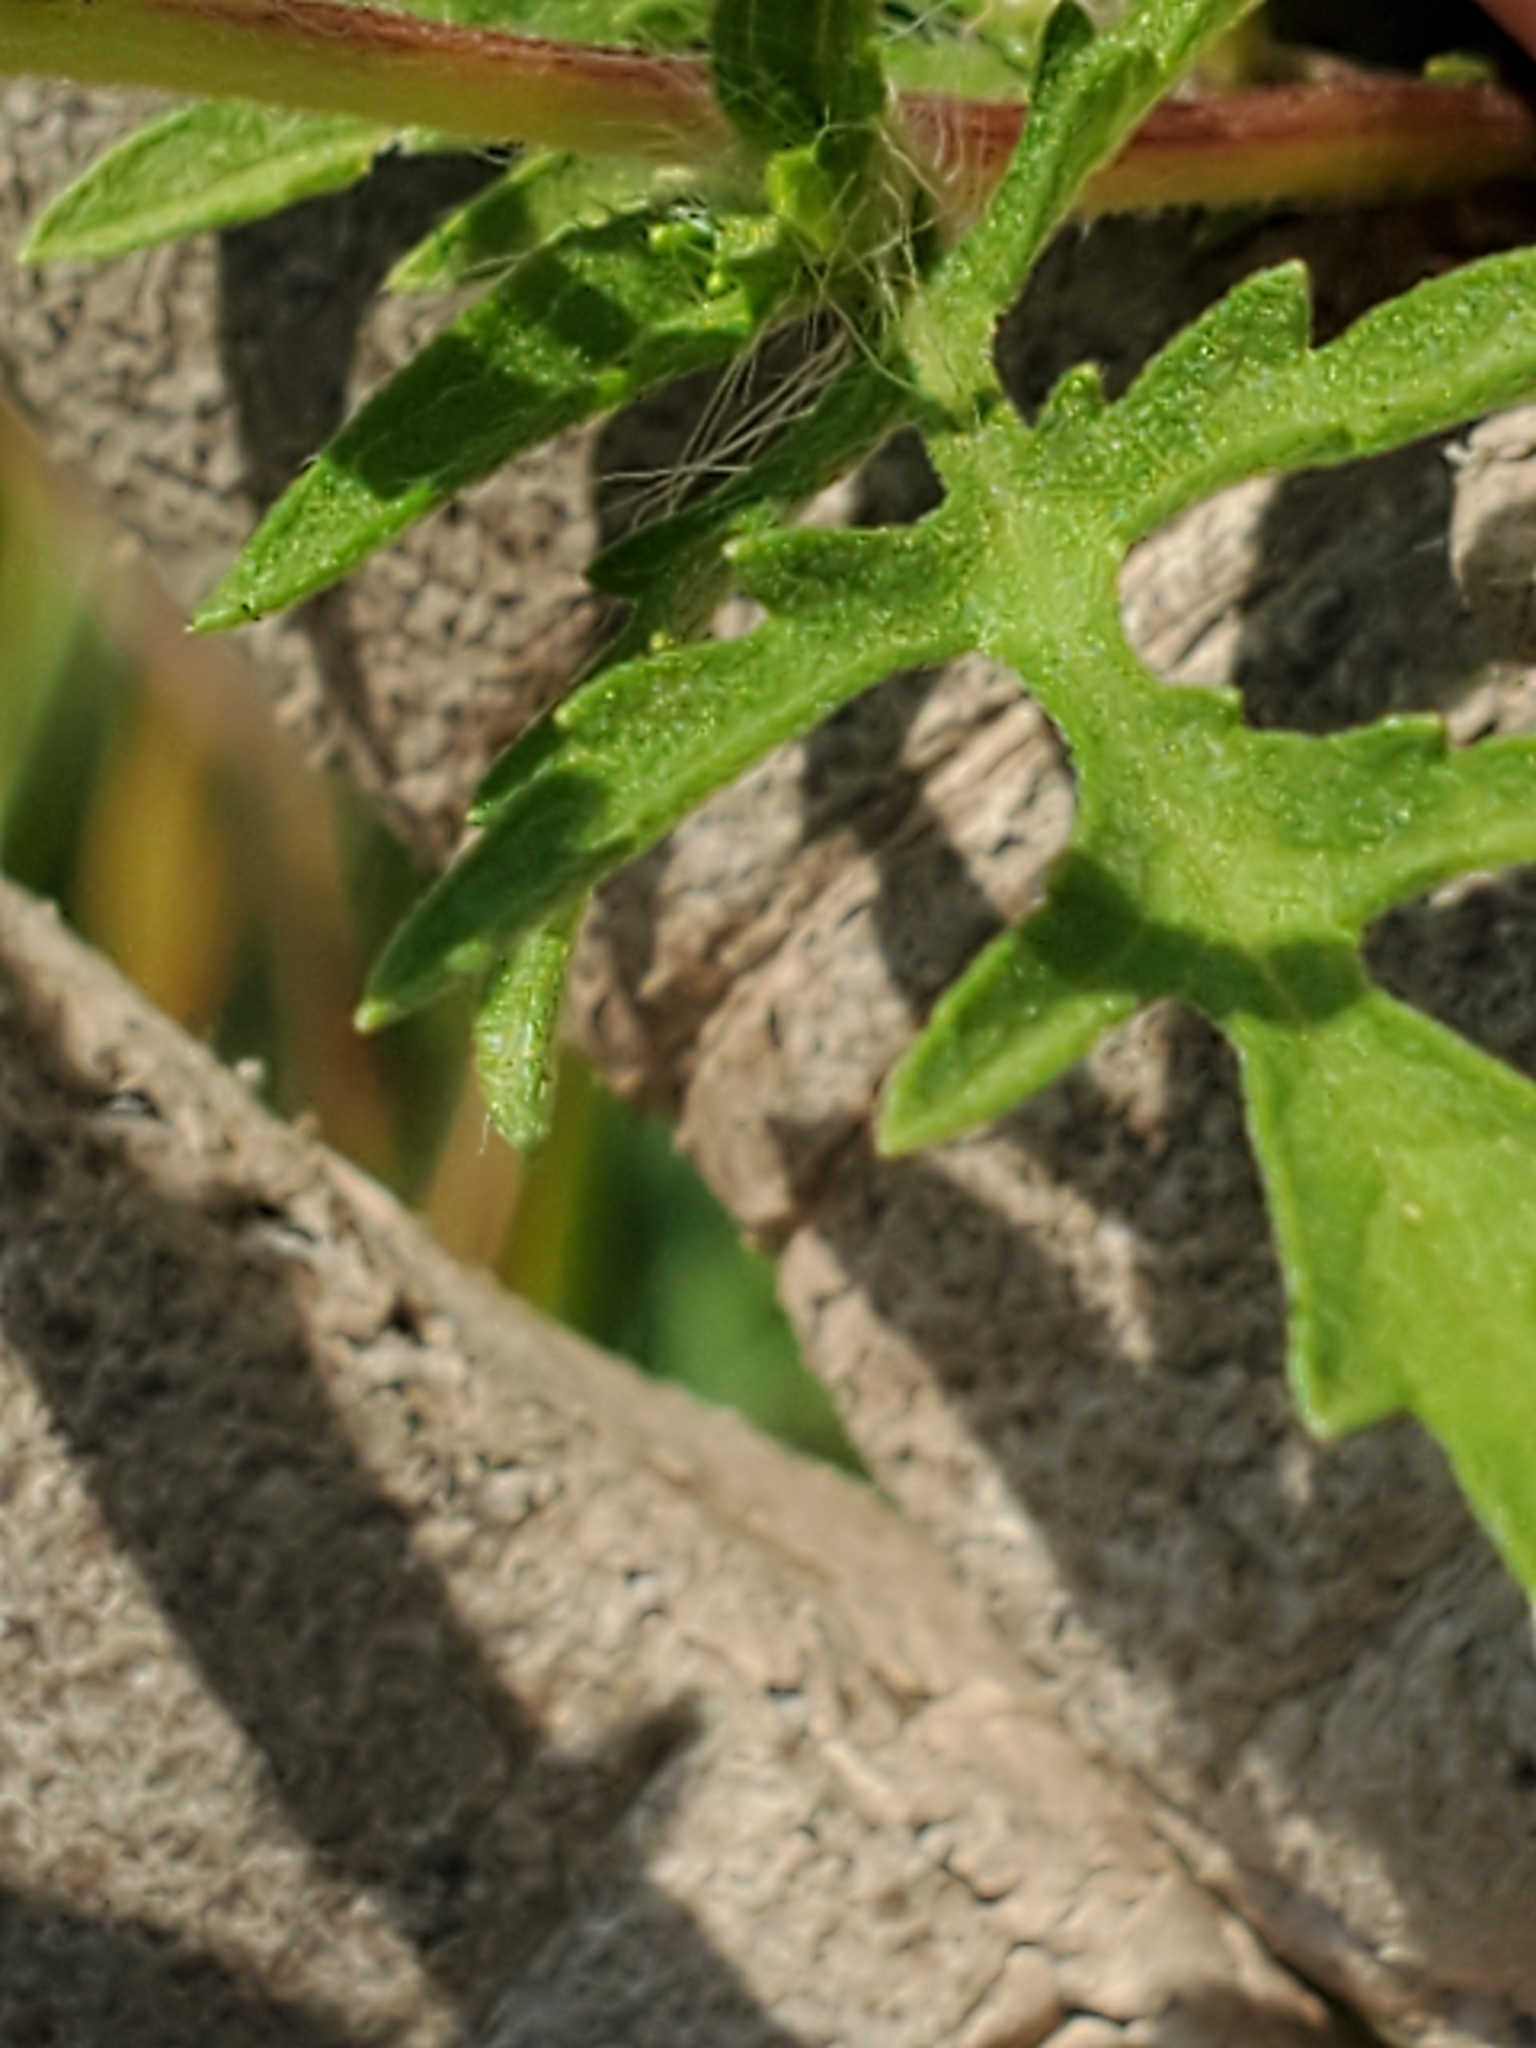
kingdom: Plantae
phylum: Tracheophyta
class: Magnoliopsida
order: Asterales
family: Asteraceae
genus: Ambrosia
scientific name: Ambrosia psilostachya
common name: Perennial ragweed
